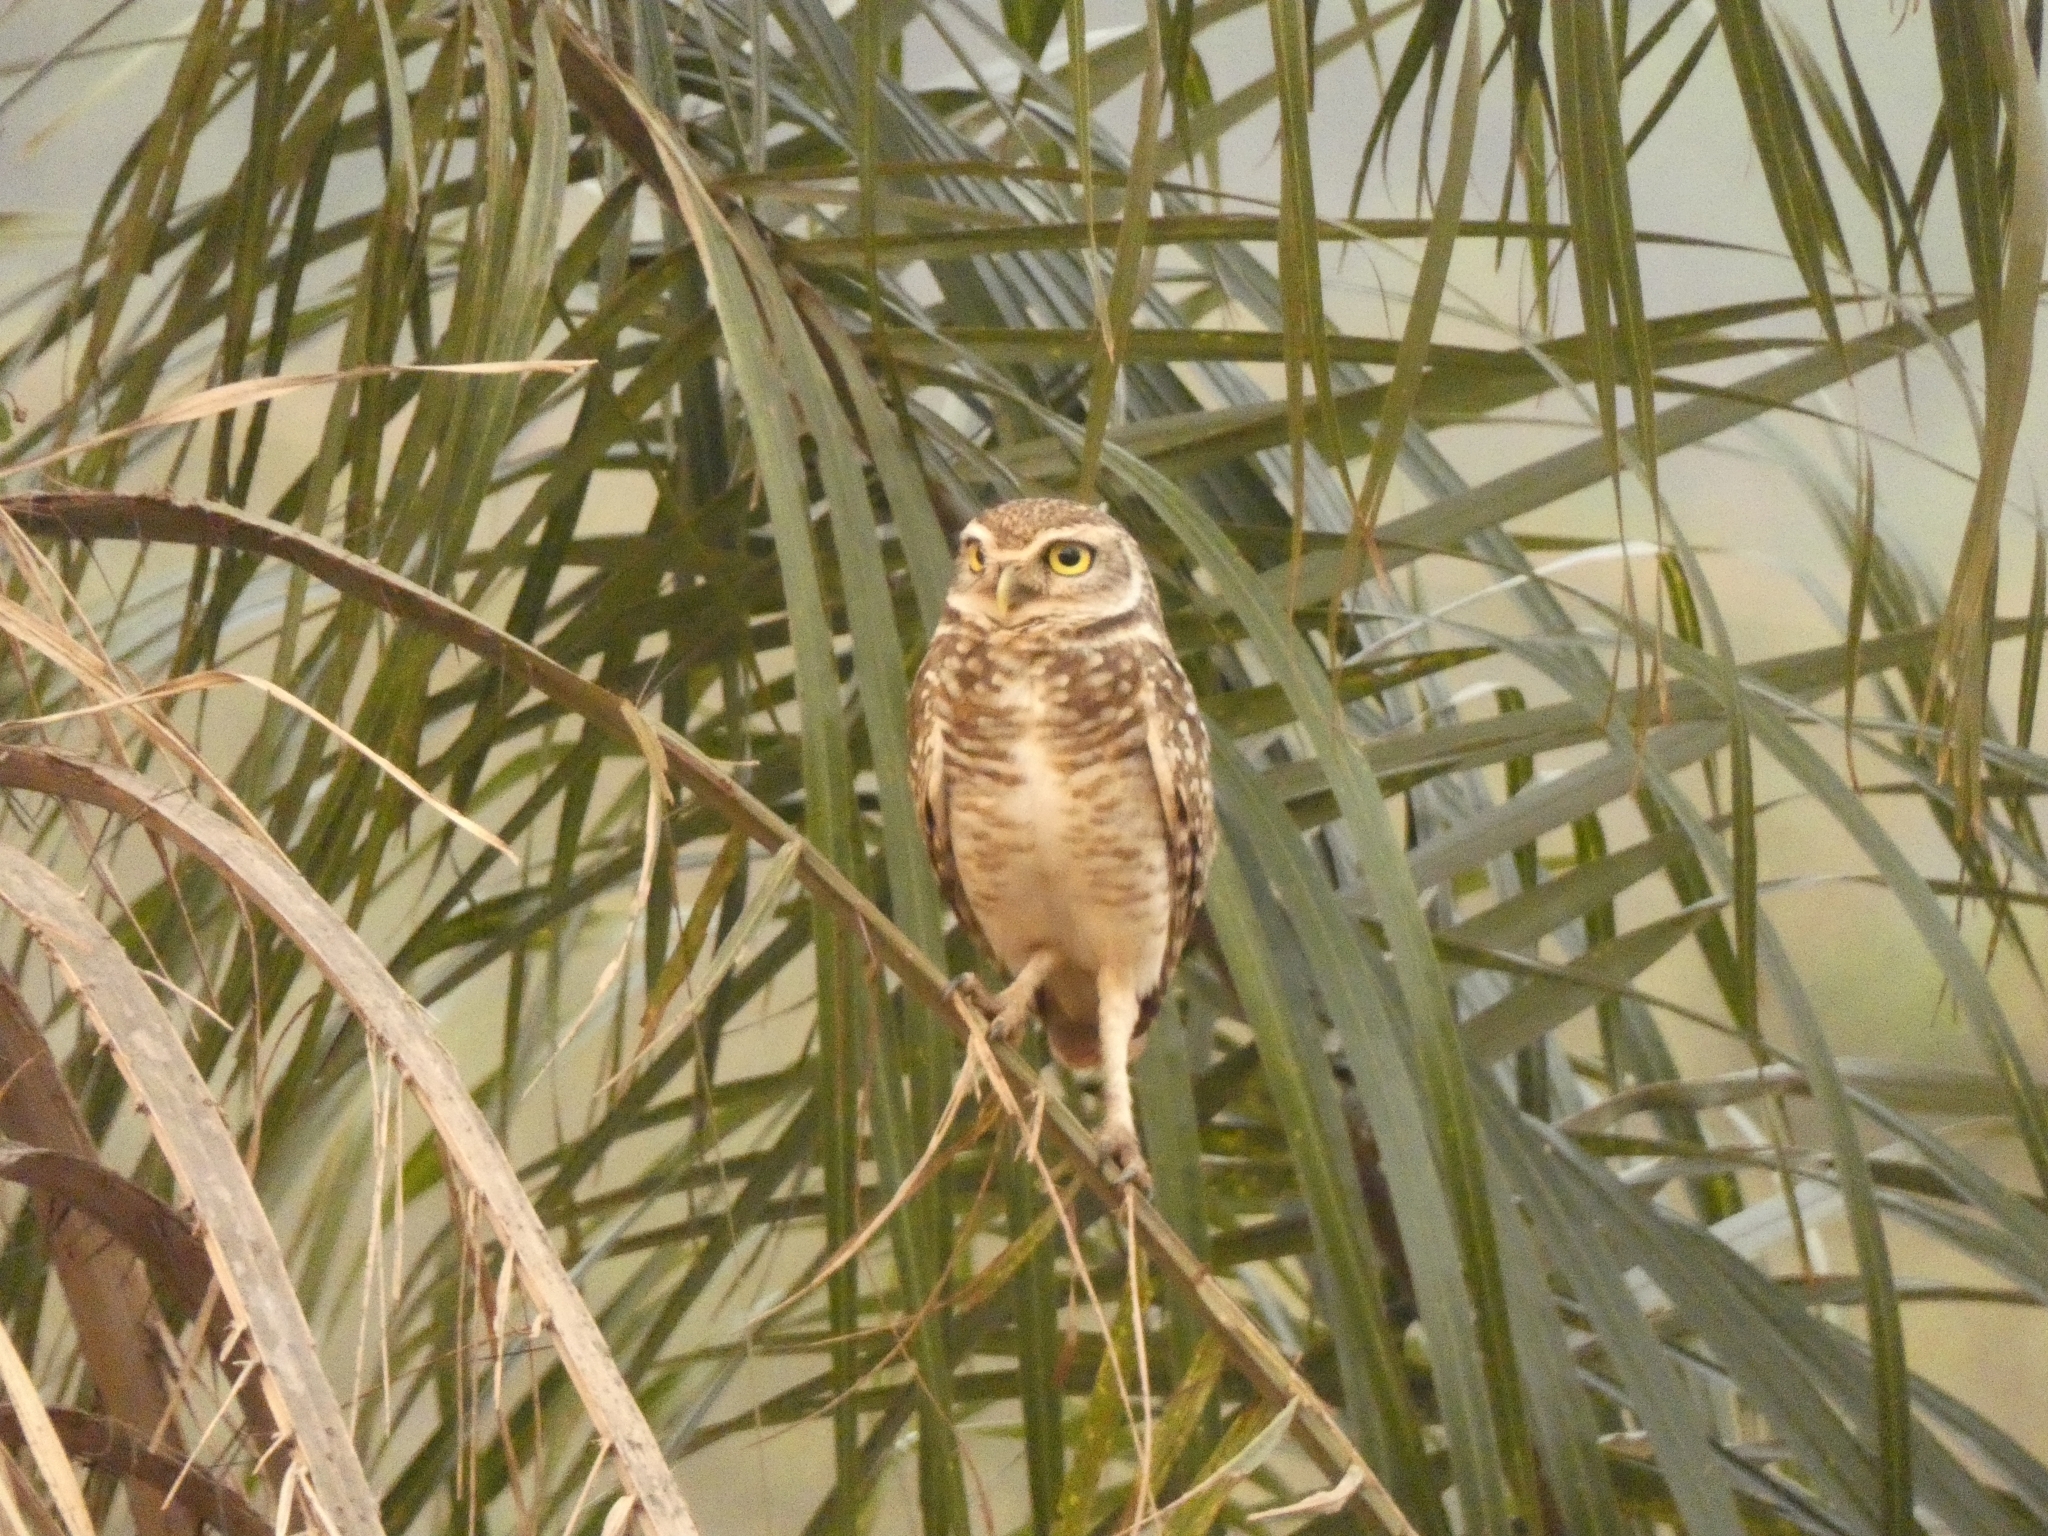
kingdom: Animalia
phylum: Chordata
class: Aves
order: Strigiformes
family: Strigidae
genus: Athene
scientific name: Athene cunicularia
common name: Burrowing owl
